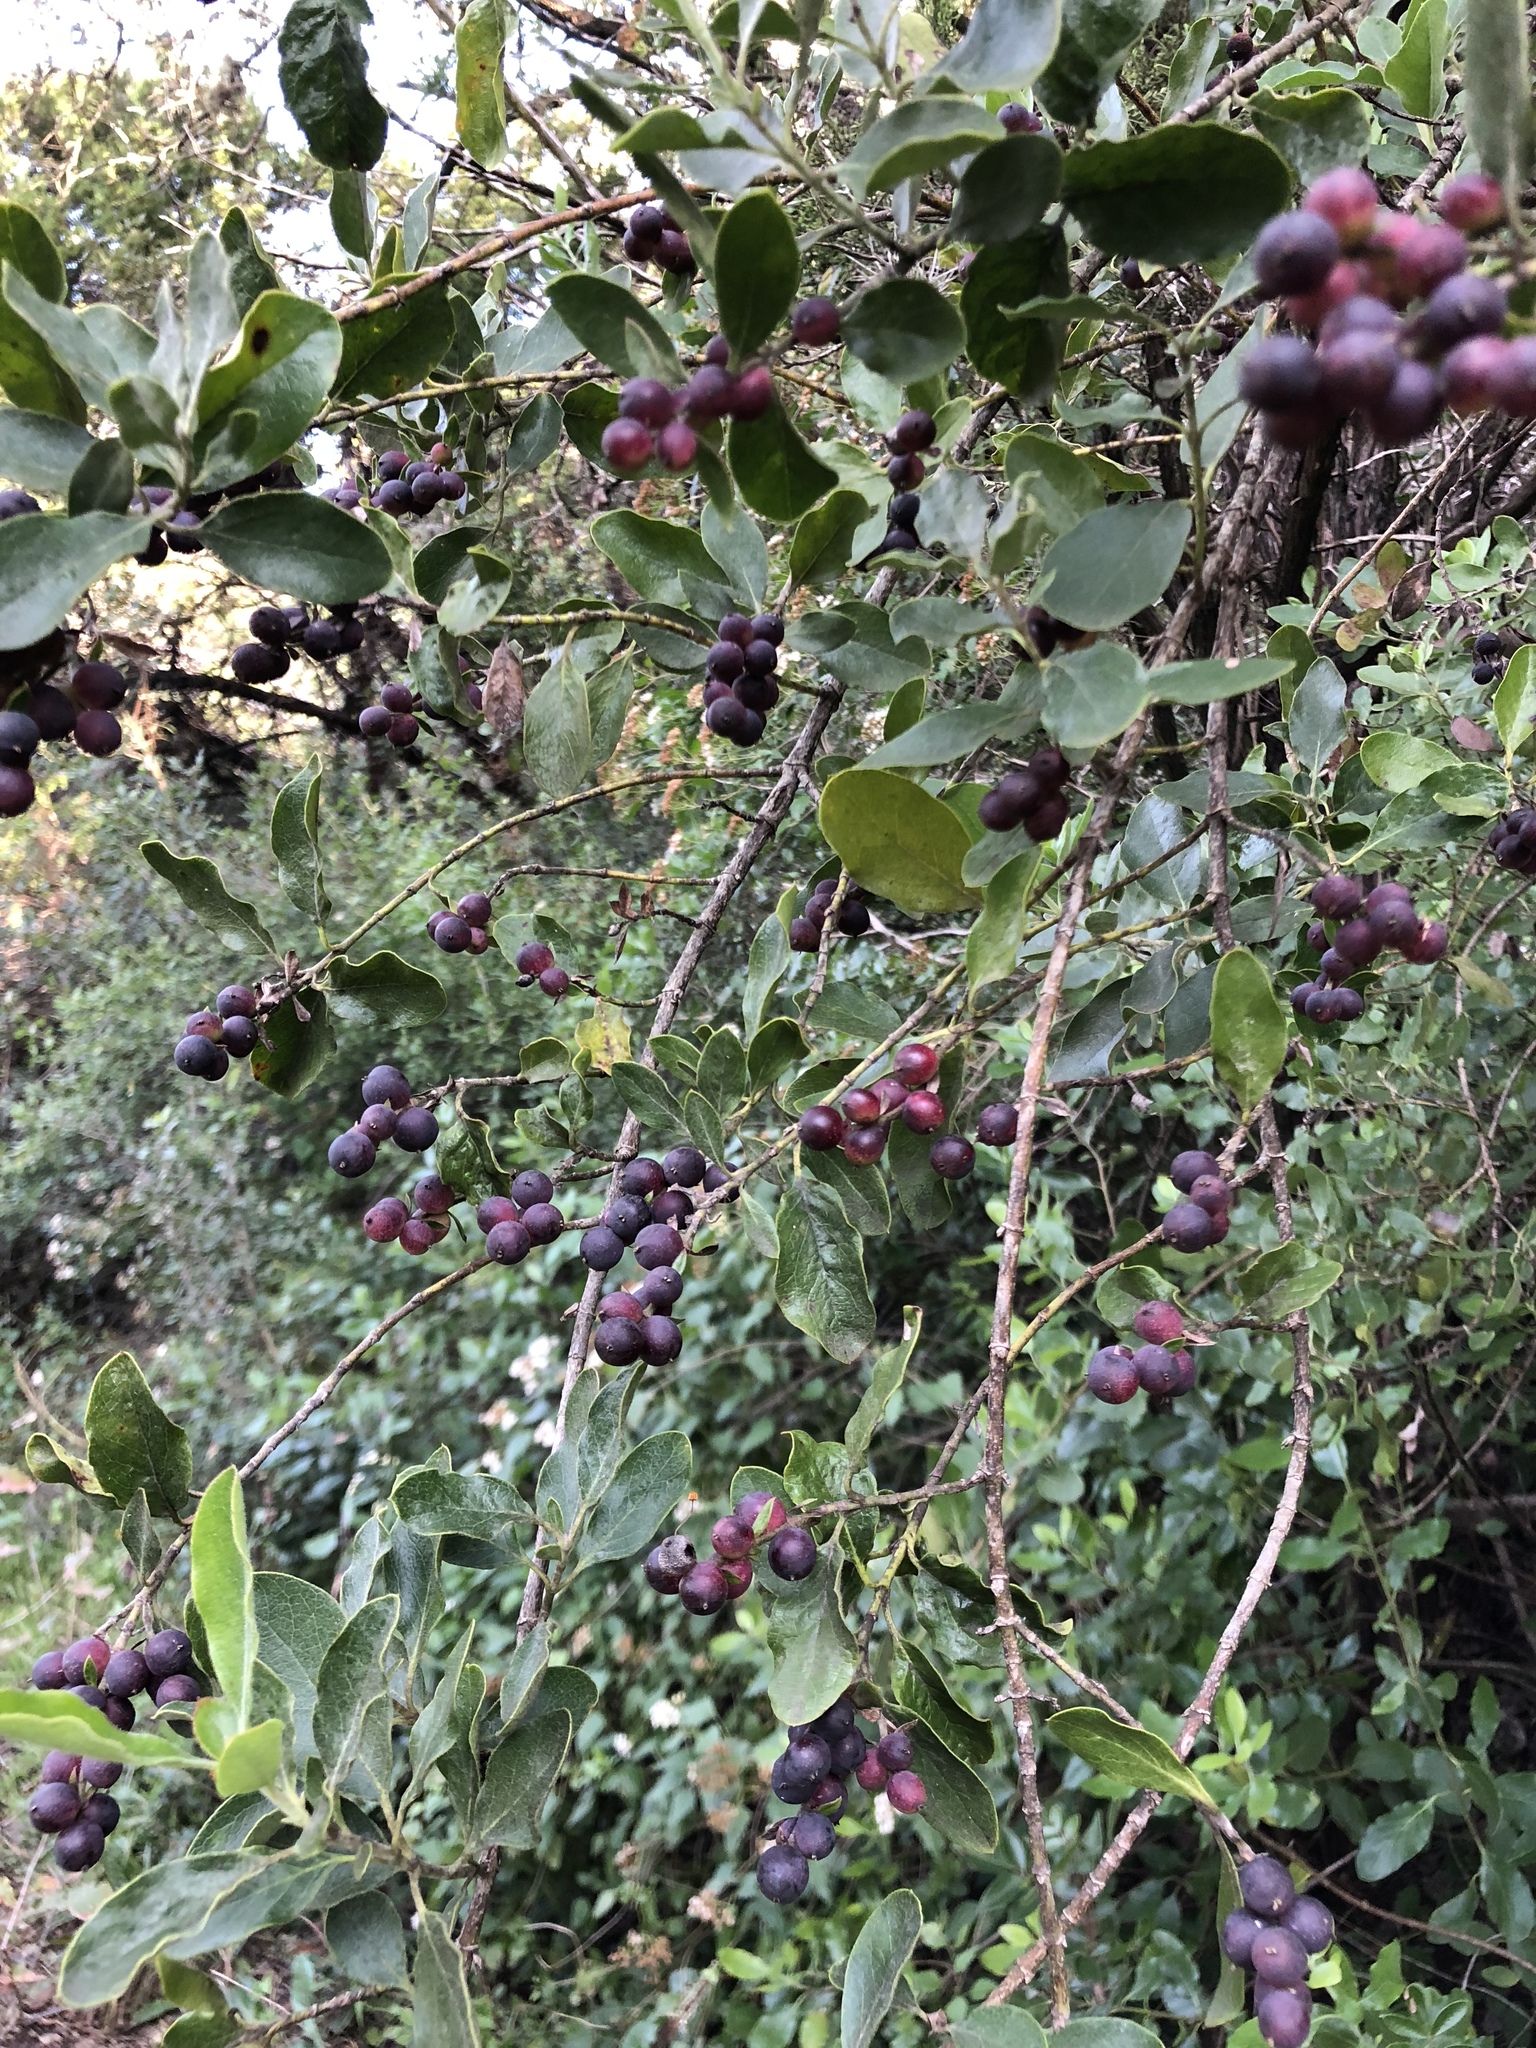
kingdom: Plantae
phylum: Tracheophyta
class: Magnoliopsida
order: Garryales
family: Garryaceae
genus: Garrya
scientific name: Garrya lindheimeri
